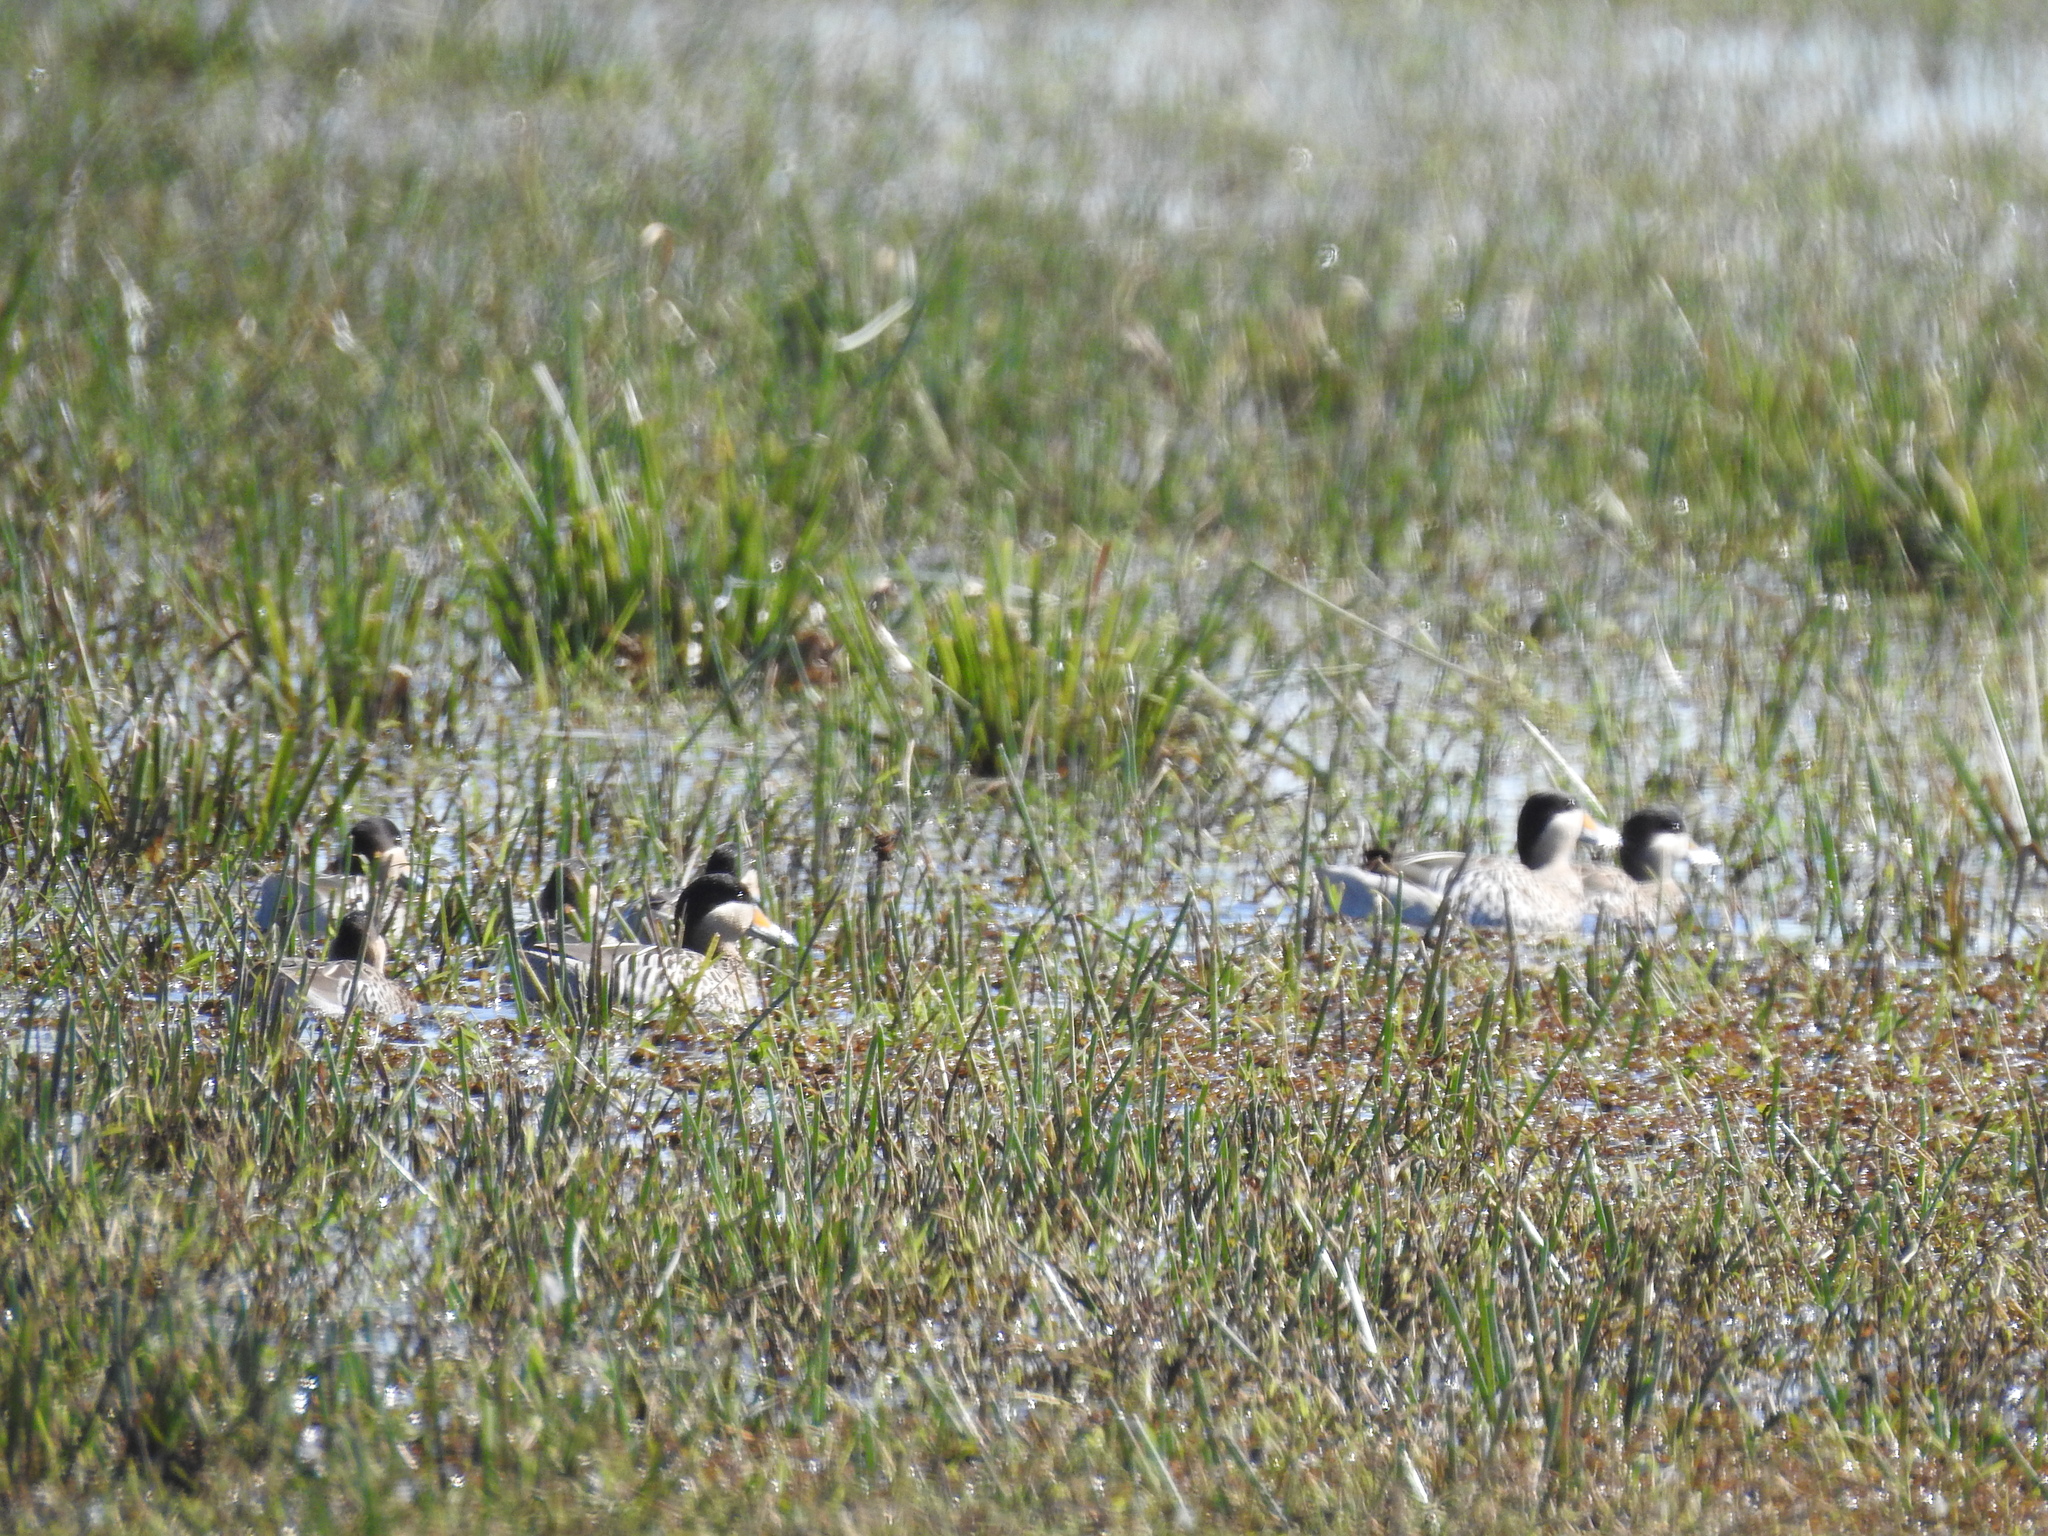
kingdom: Animalia
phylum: Chordata
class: Aves
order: Anseriformes
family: Anatidae
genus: Spatula
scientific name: Spatula versicolor
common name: Silver teal
